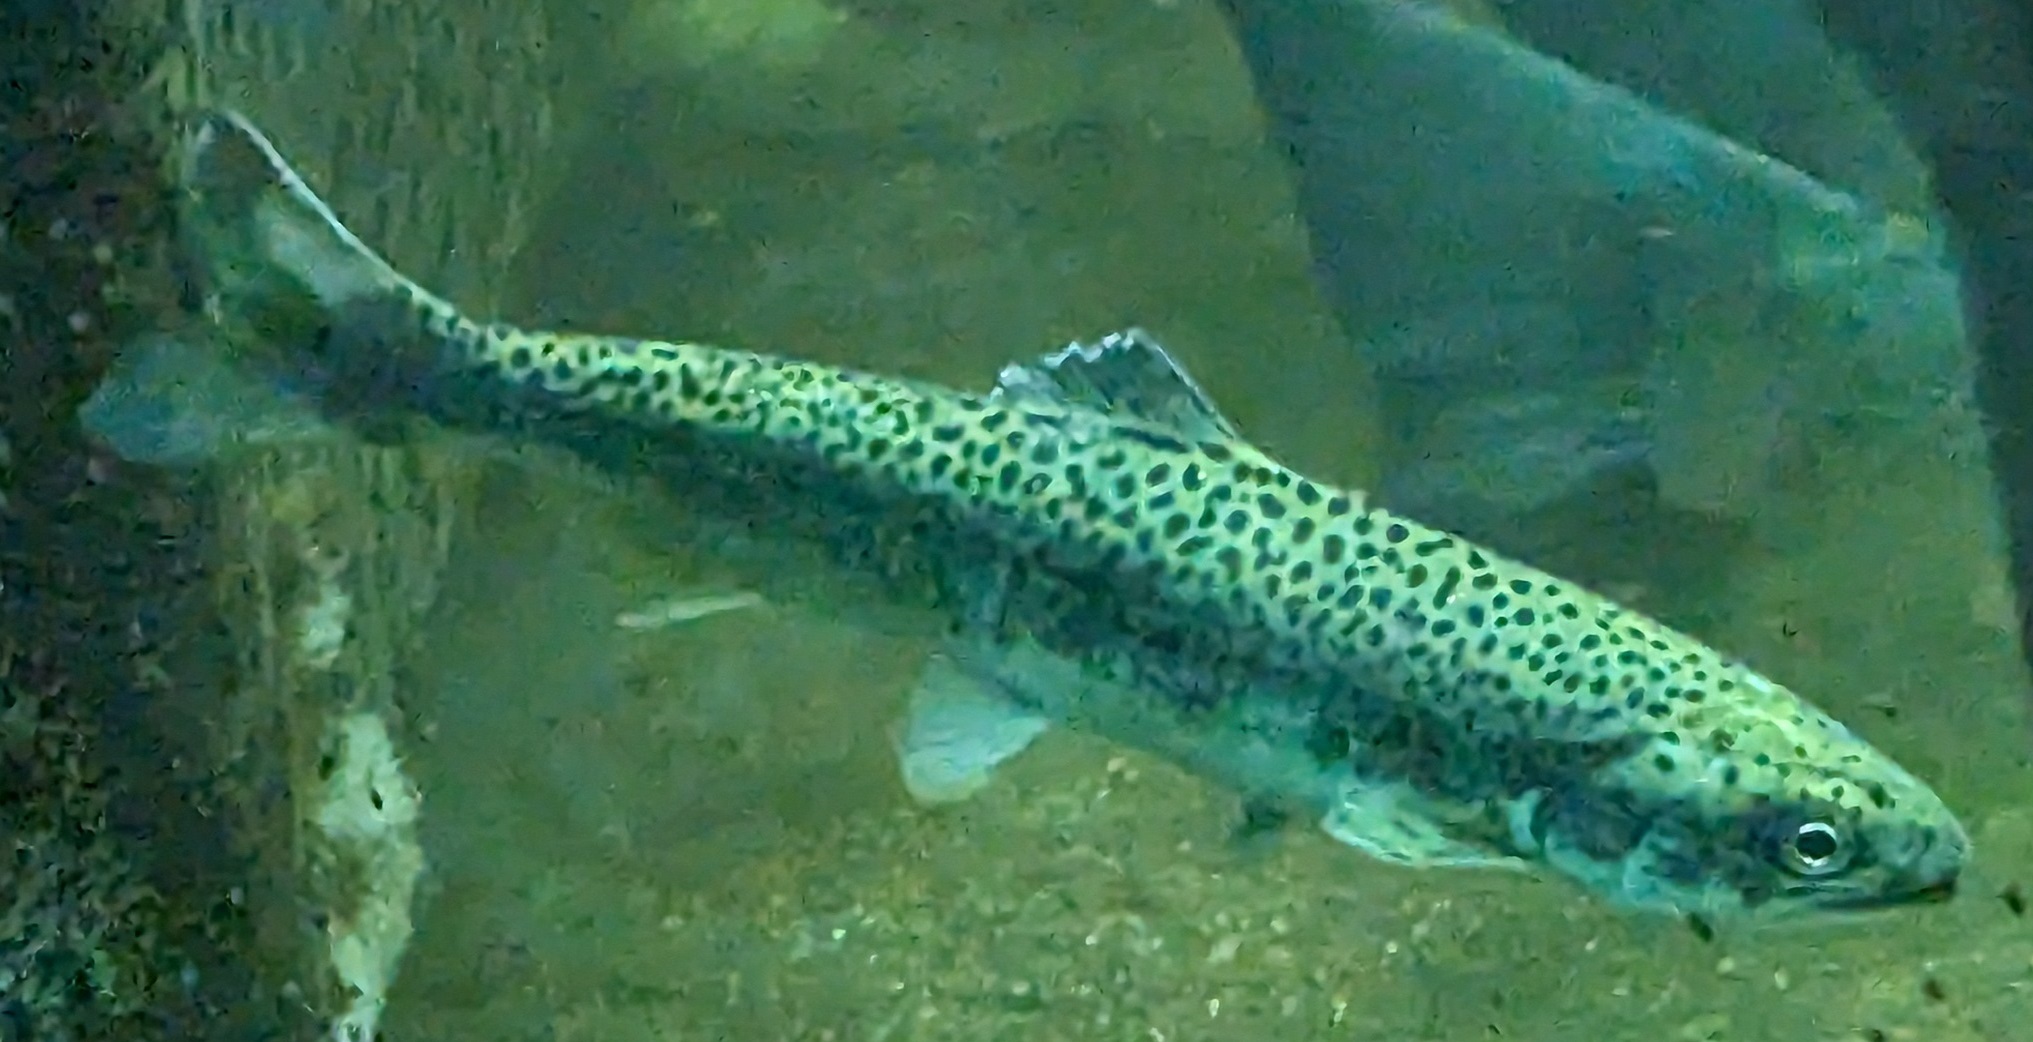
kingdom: Animalia
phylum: Chordata
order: Salmoniformes
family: Salmonidae
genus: Oncorhynchus
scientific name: Oncorhynchus mykiss
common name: Rainbow trout
